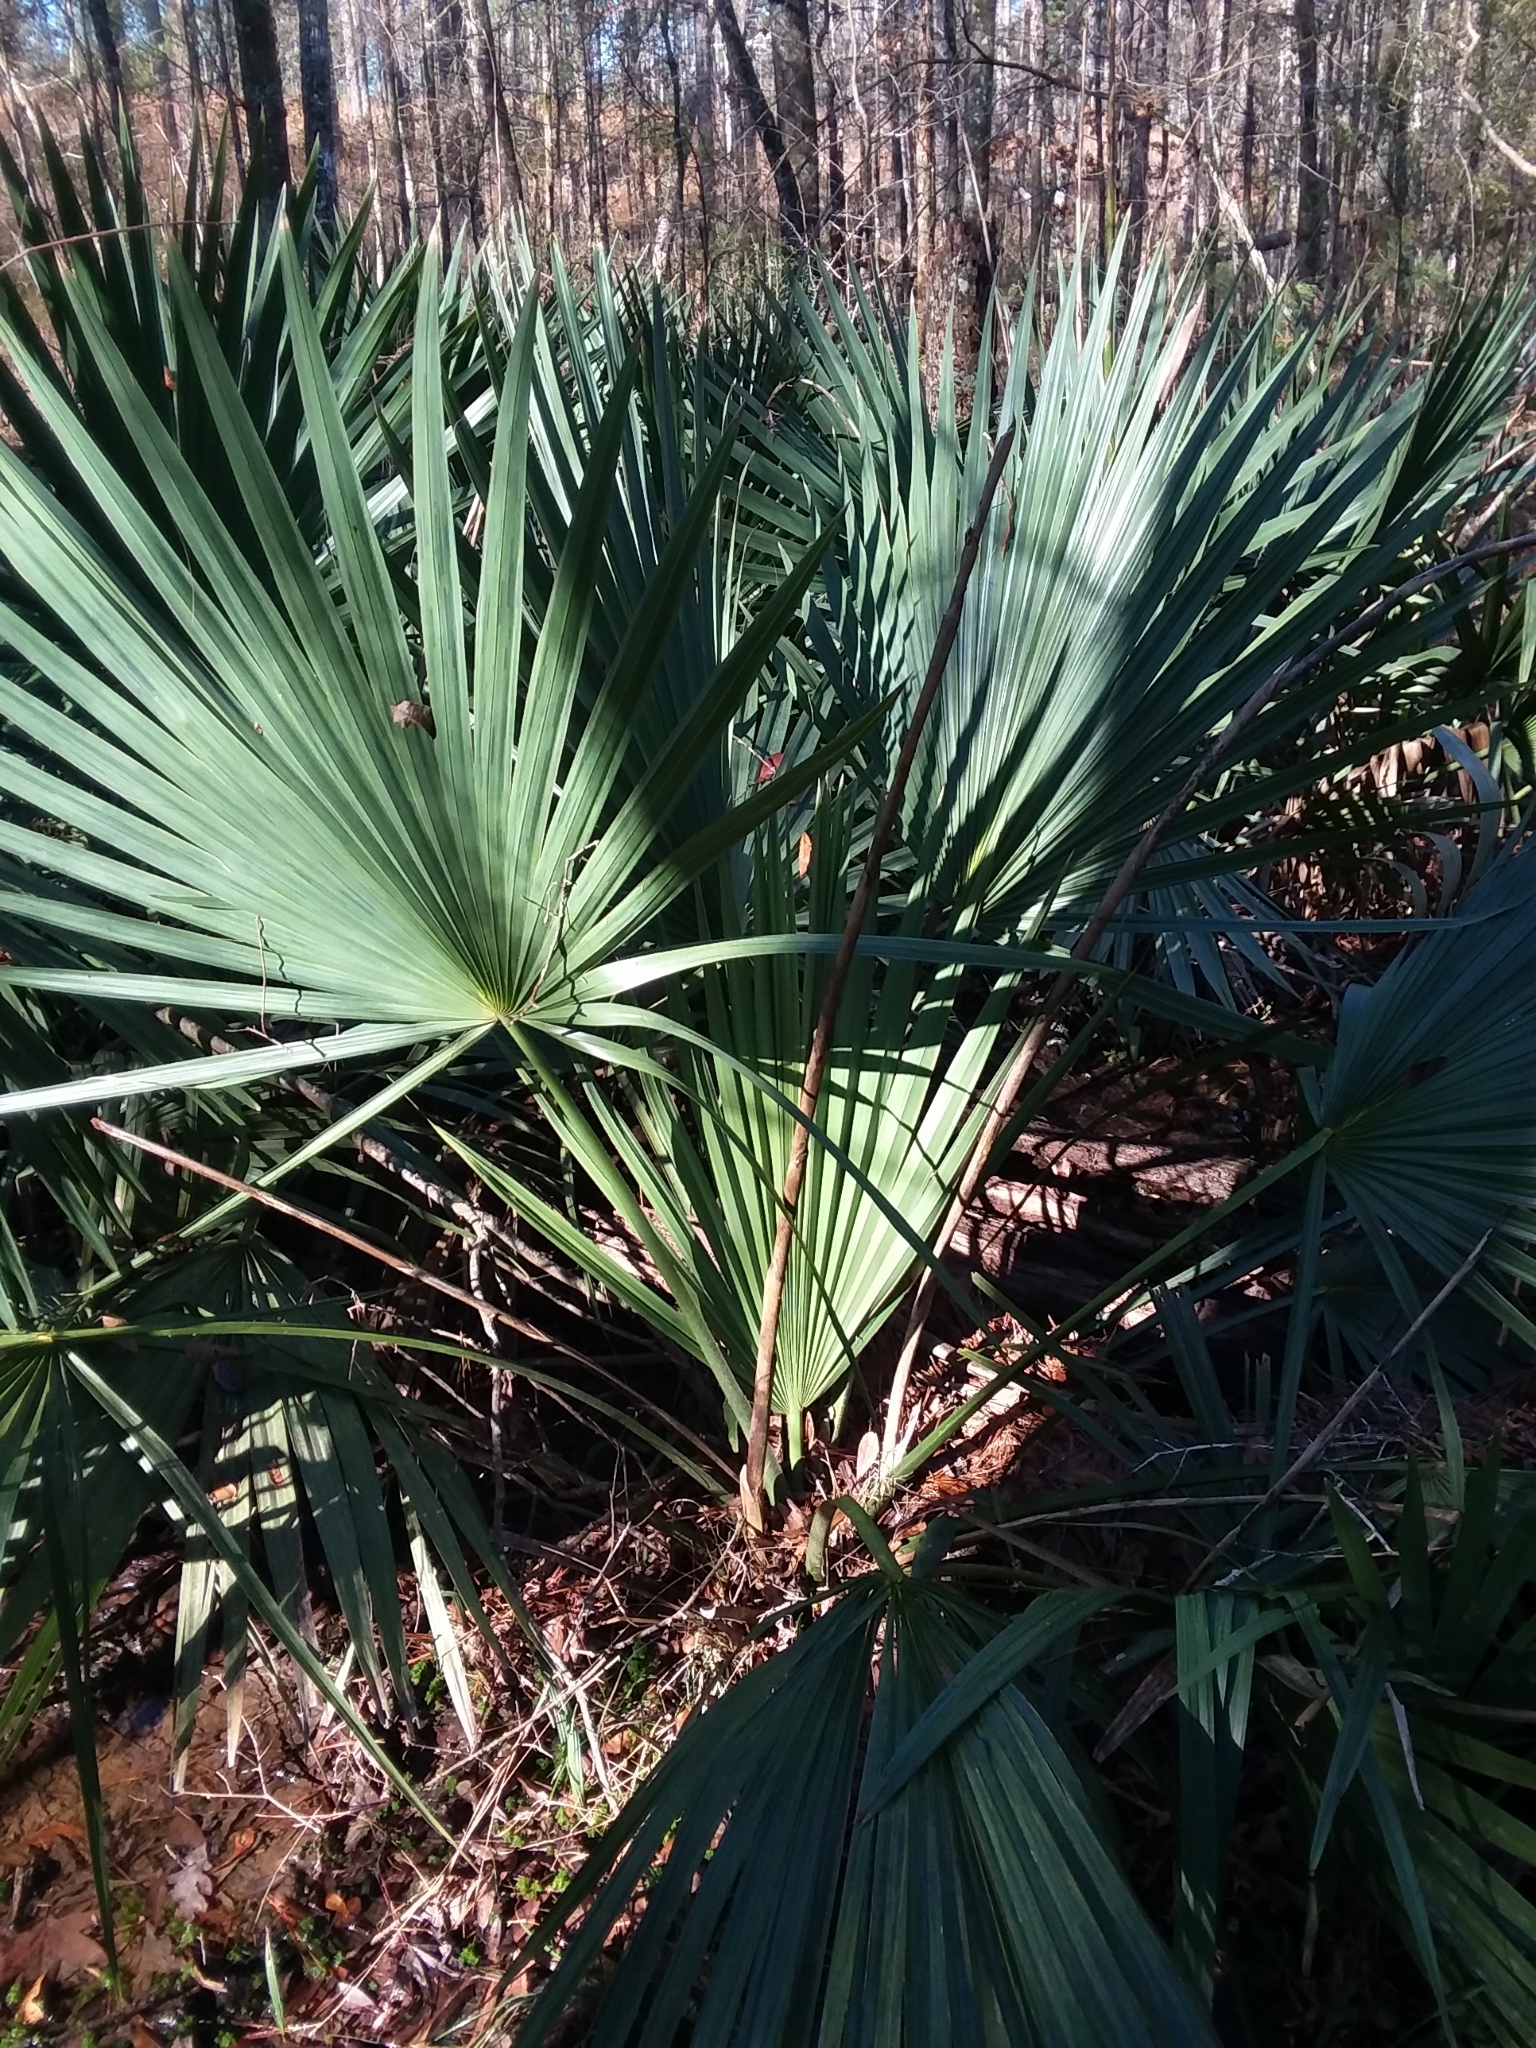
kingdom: Plantae
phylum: Tracheophyta
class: Liliopsida
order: Arecales
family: Arecaceae
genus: Sabal
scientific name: Sabal minor
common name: Dwarf palmetto
